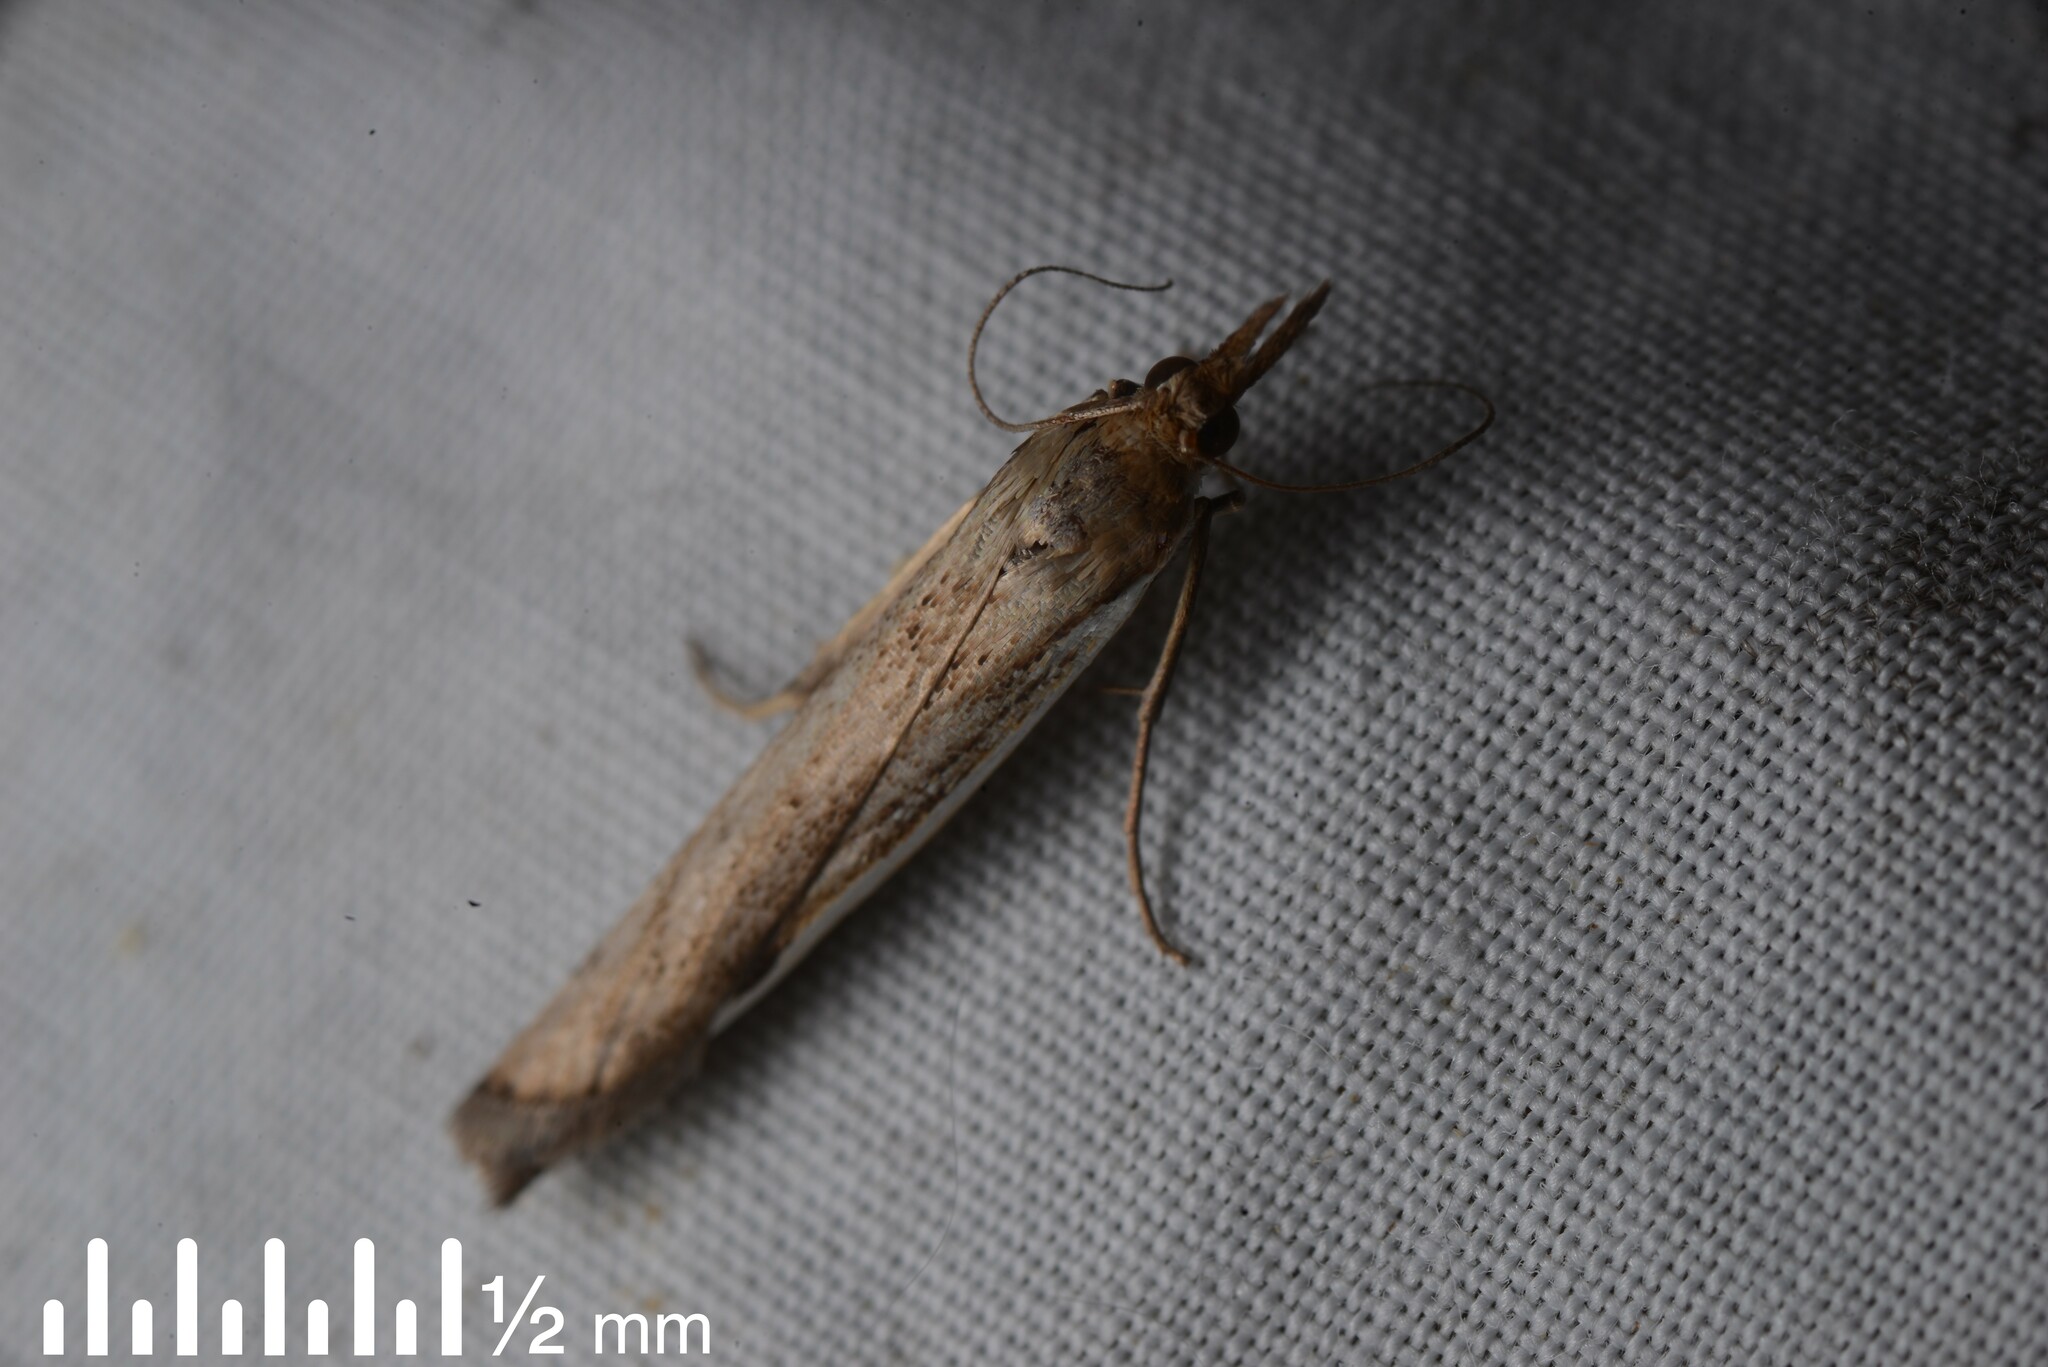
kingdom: Animalia
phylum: Arthropoda
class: Insecta
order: Lepidoptera
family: Crambidae
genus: Orocrambus
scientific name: Orocrambus flexuosellus
